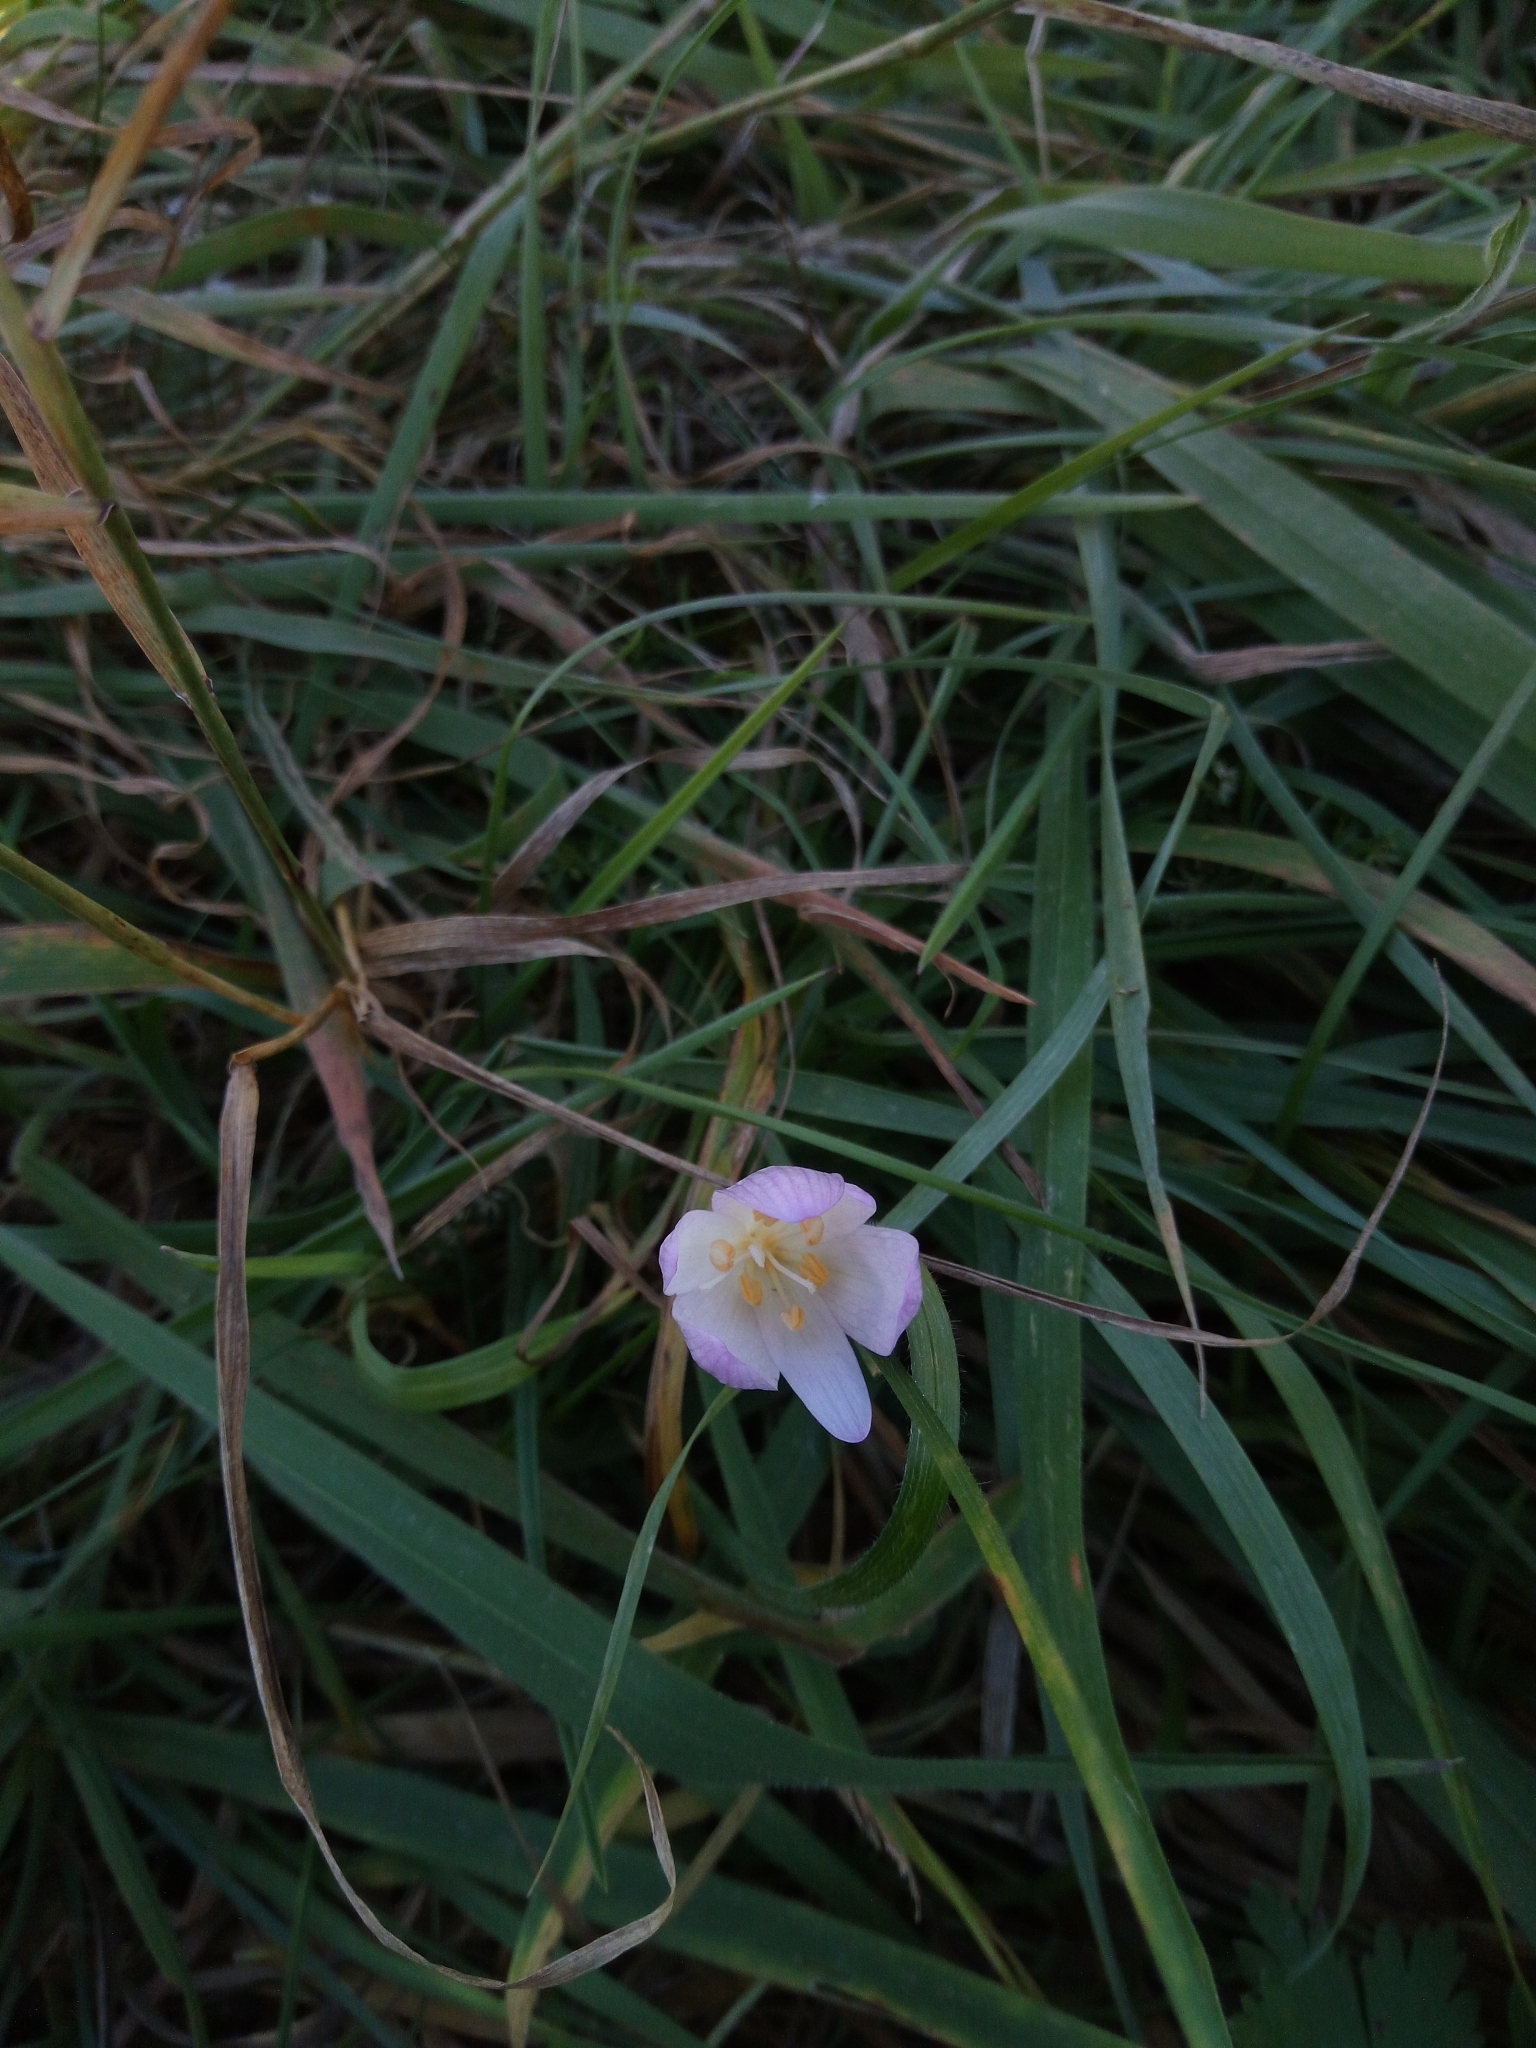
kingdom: Plantae
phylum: Tracheophyta
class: Liliopsida
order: Liliales
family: Colchicaceae
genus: Colchicum
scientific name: Colchicum autumnale
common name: Autumn crocus
